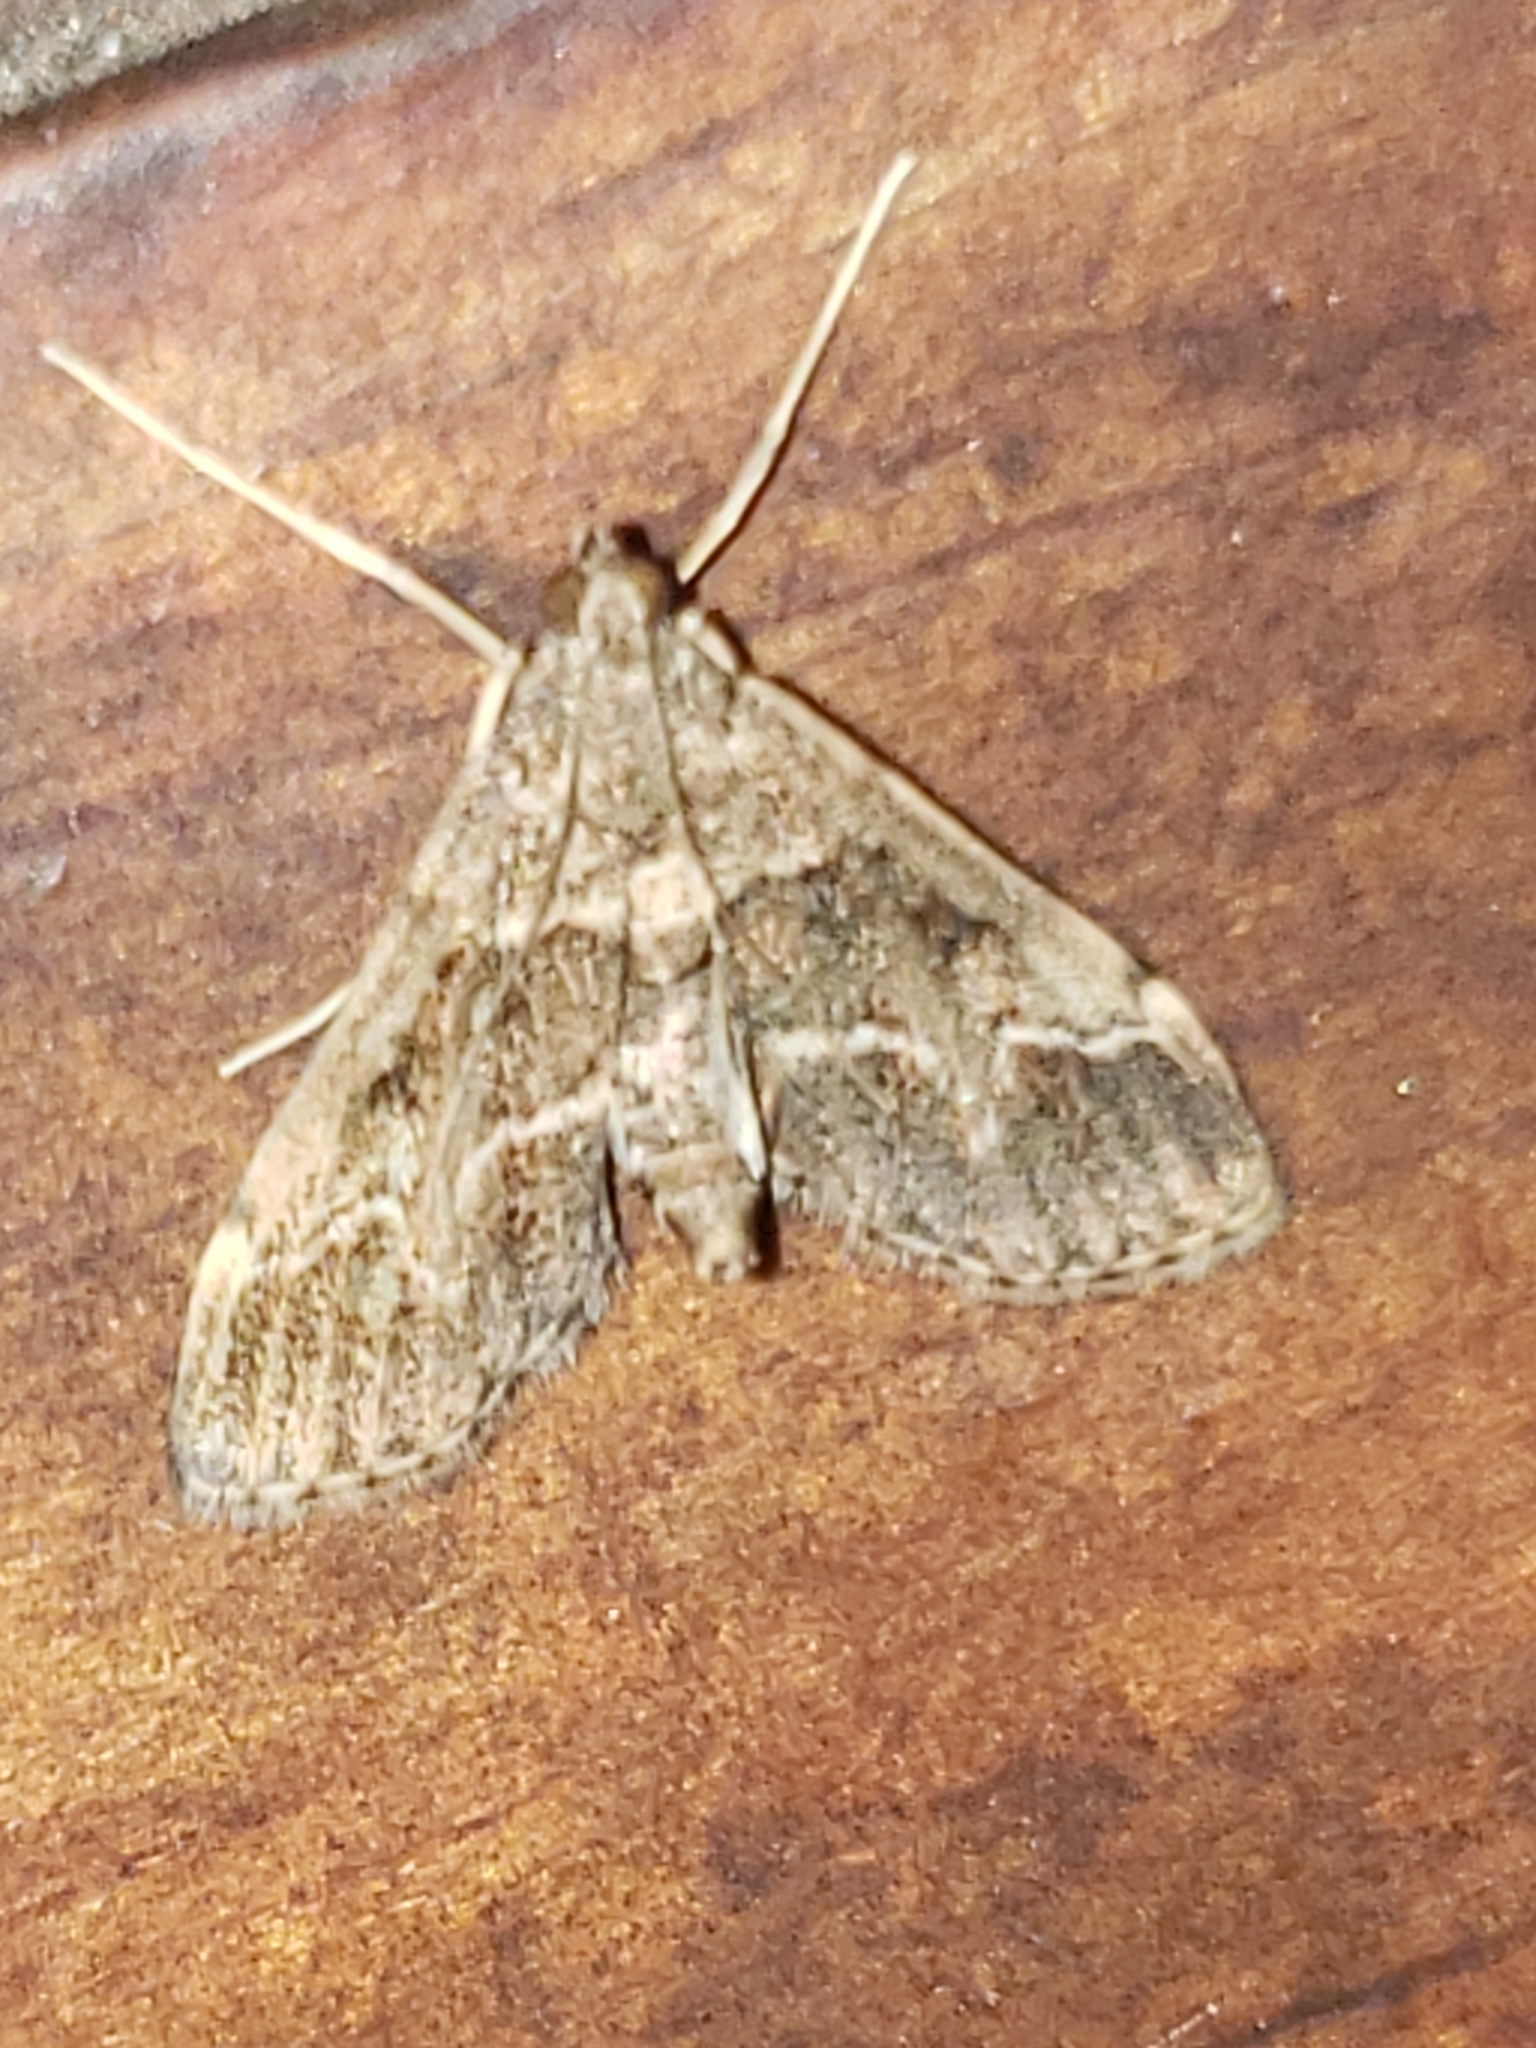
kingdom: Animalia
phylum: Arthropoda
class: Insecta
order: Lepidoptera
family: Crambidae
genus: Duponchelia
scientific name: Duponchelia fovealis
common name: Crambid moth
